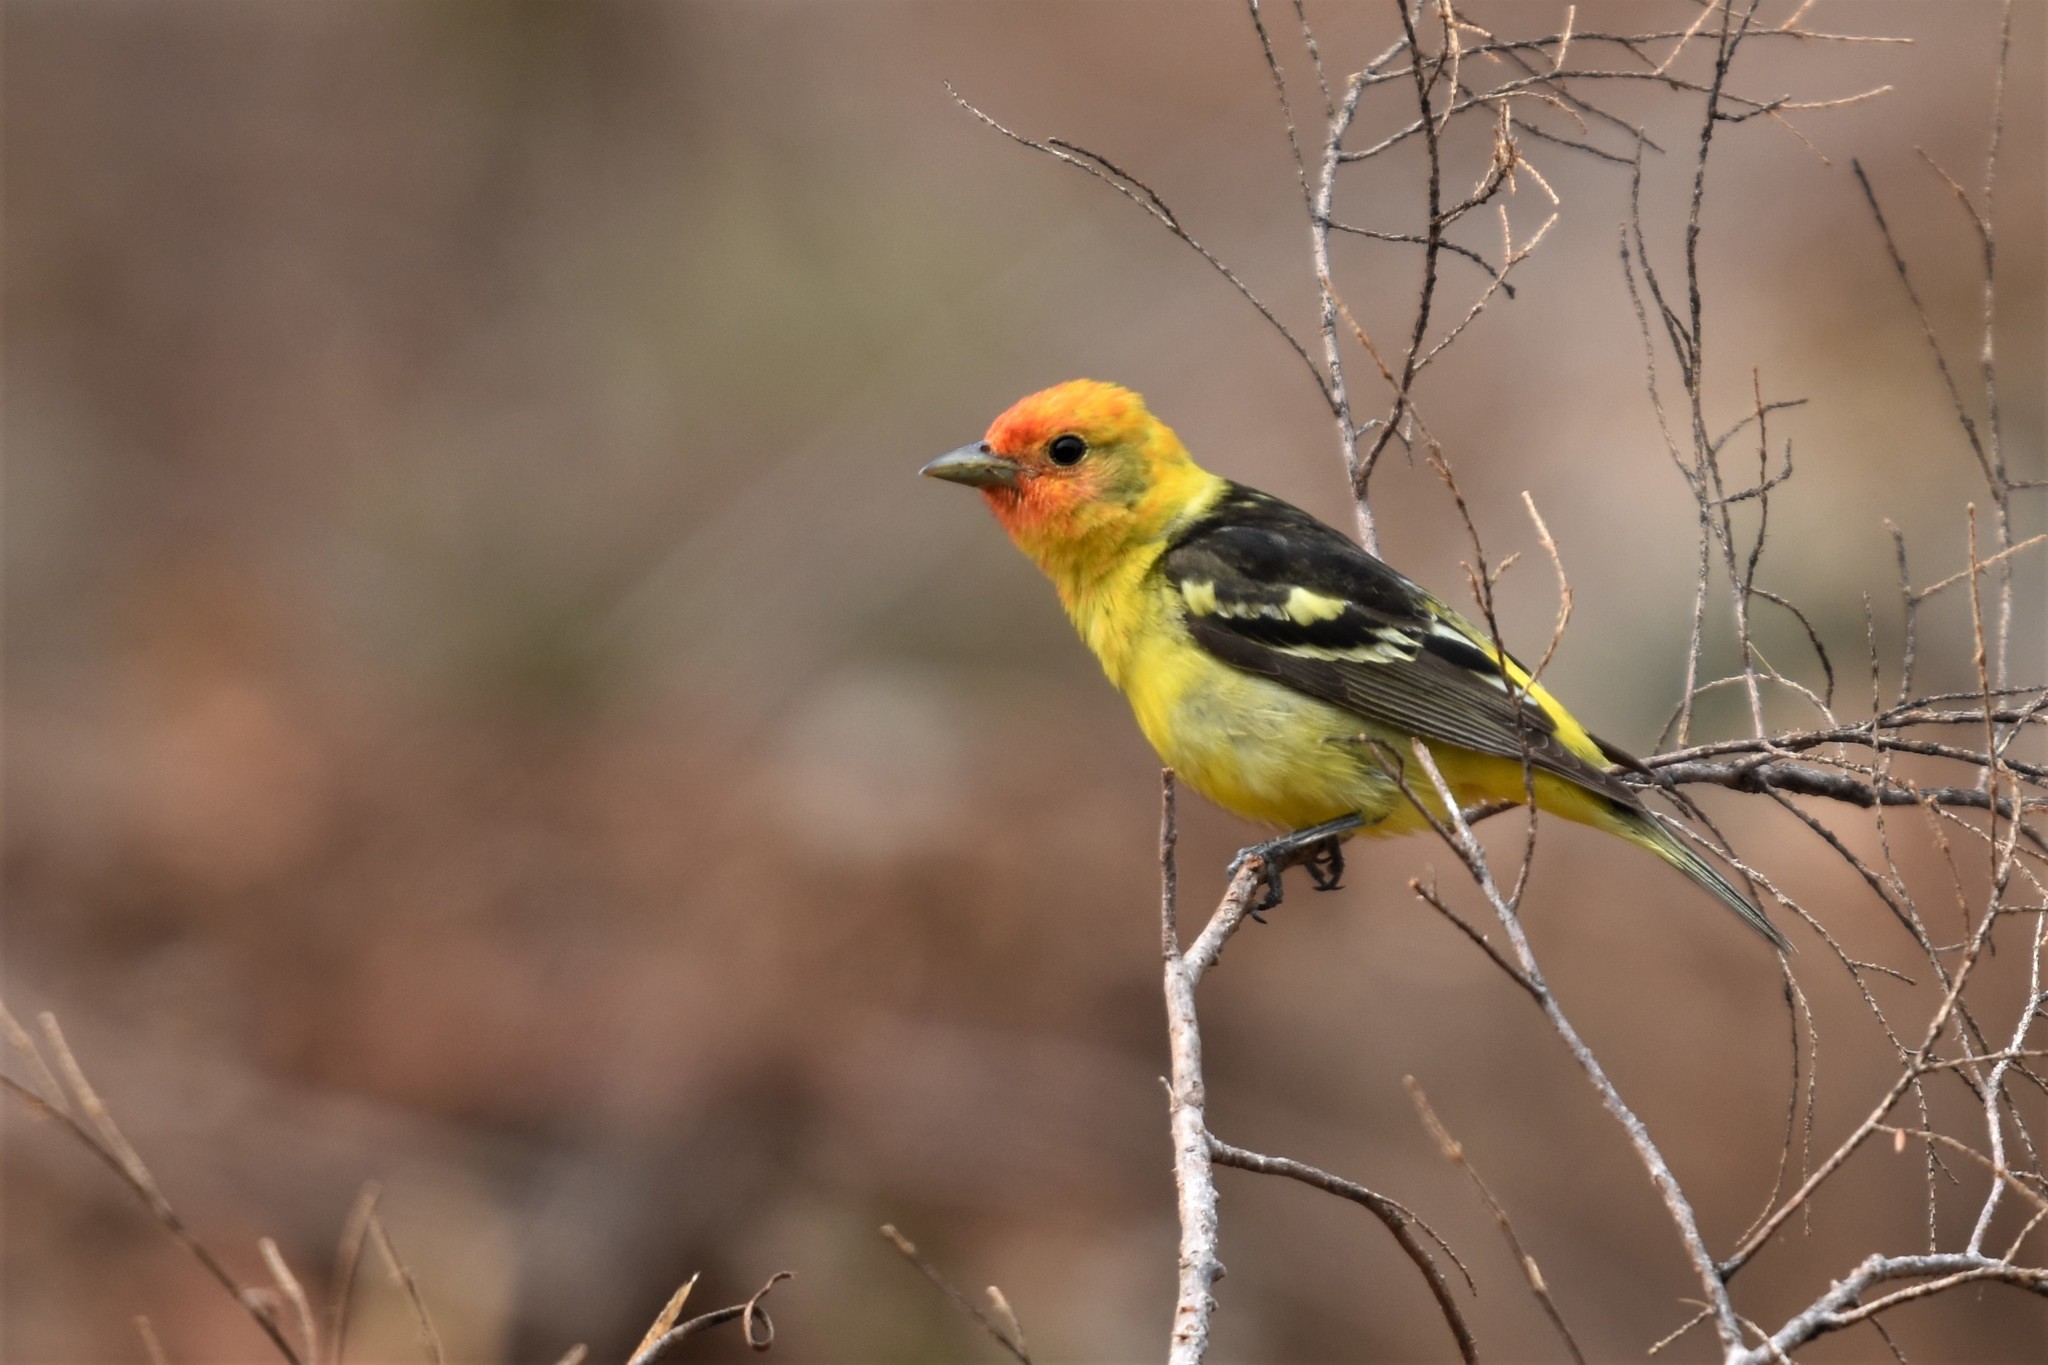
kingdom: Animalia
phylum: Chordata
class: Aves
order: Passeriformes
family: Cardinalidae
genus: Piranga
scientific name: Piranga ludoviciana
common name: Western tanager
